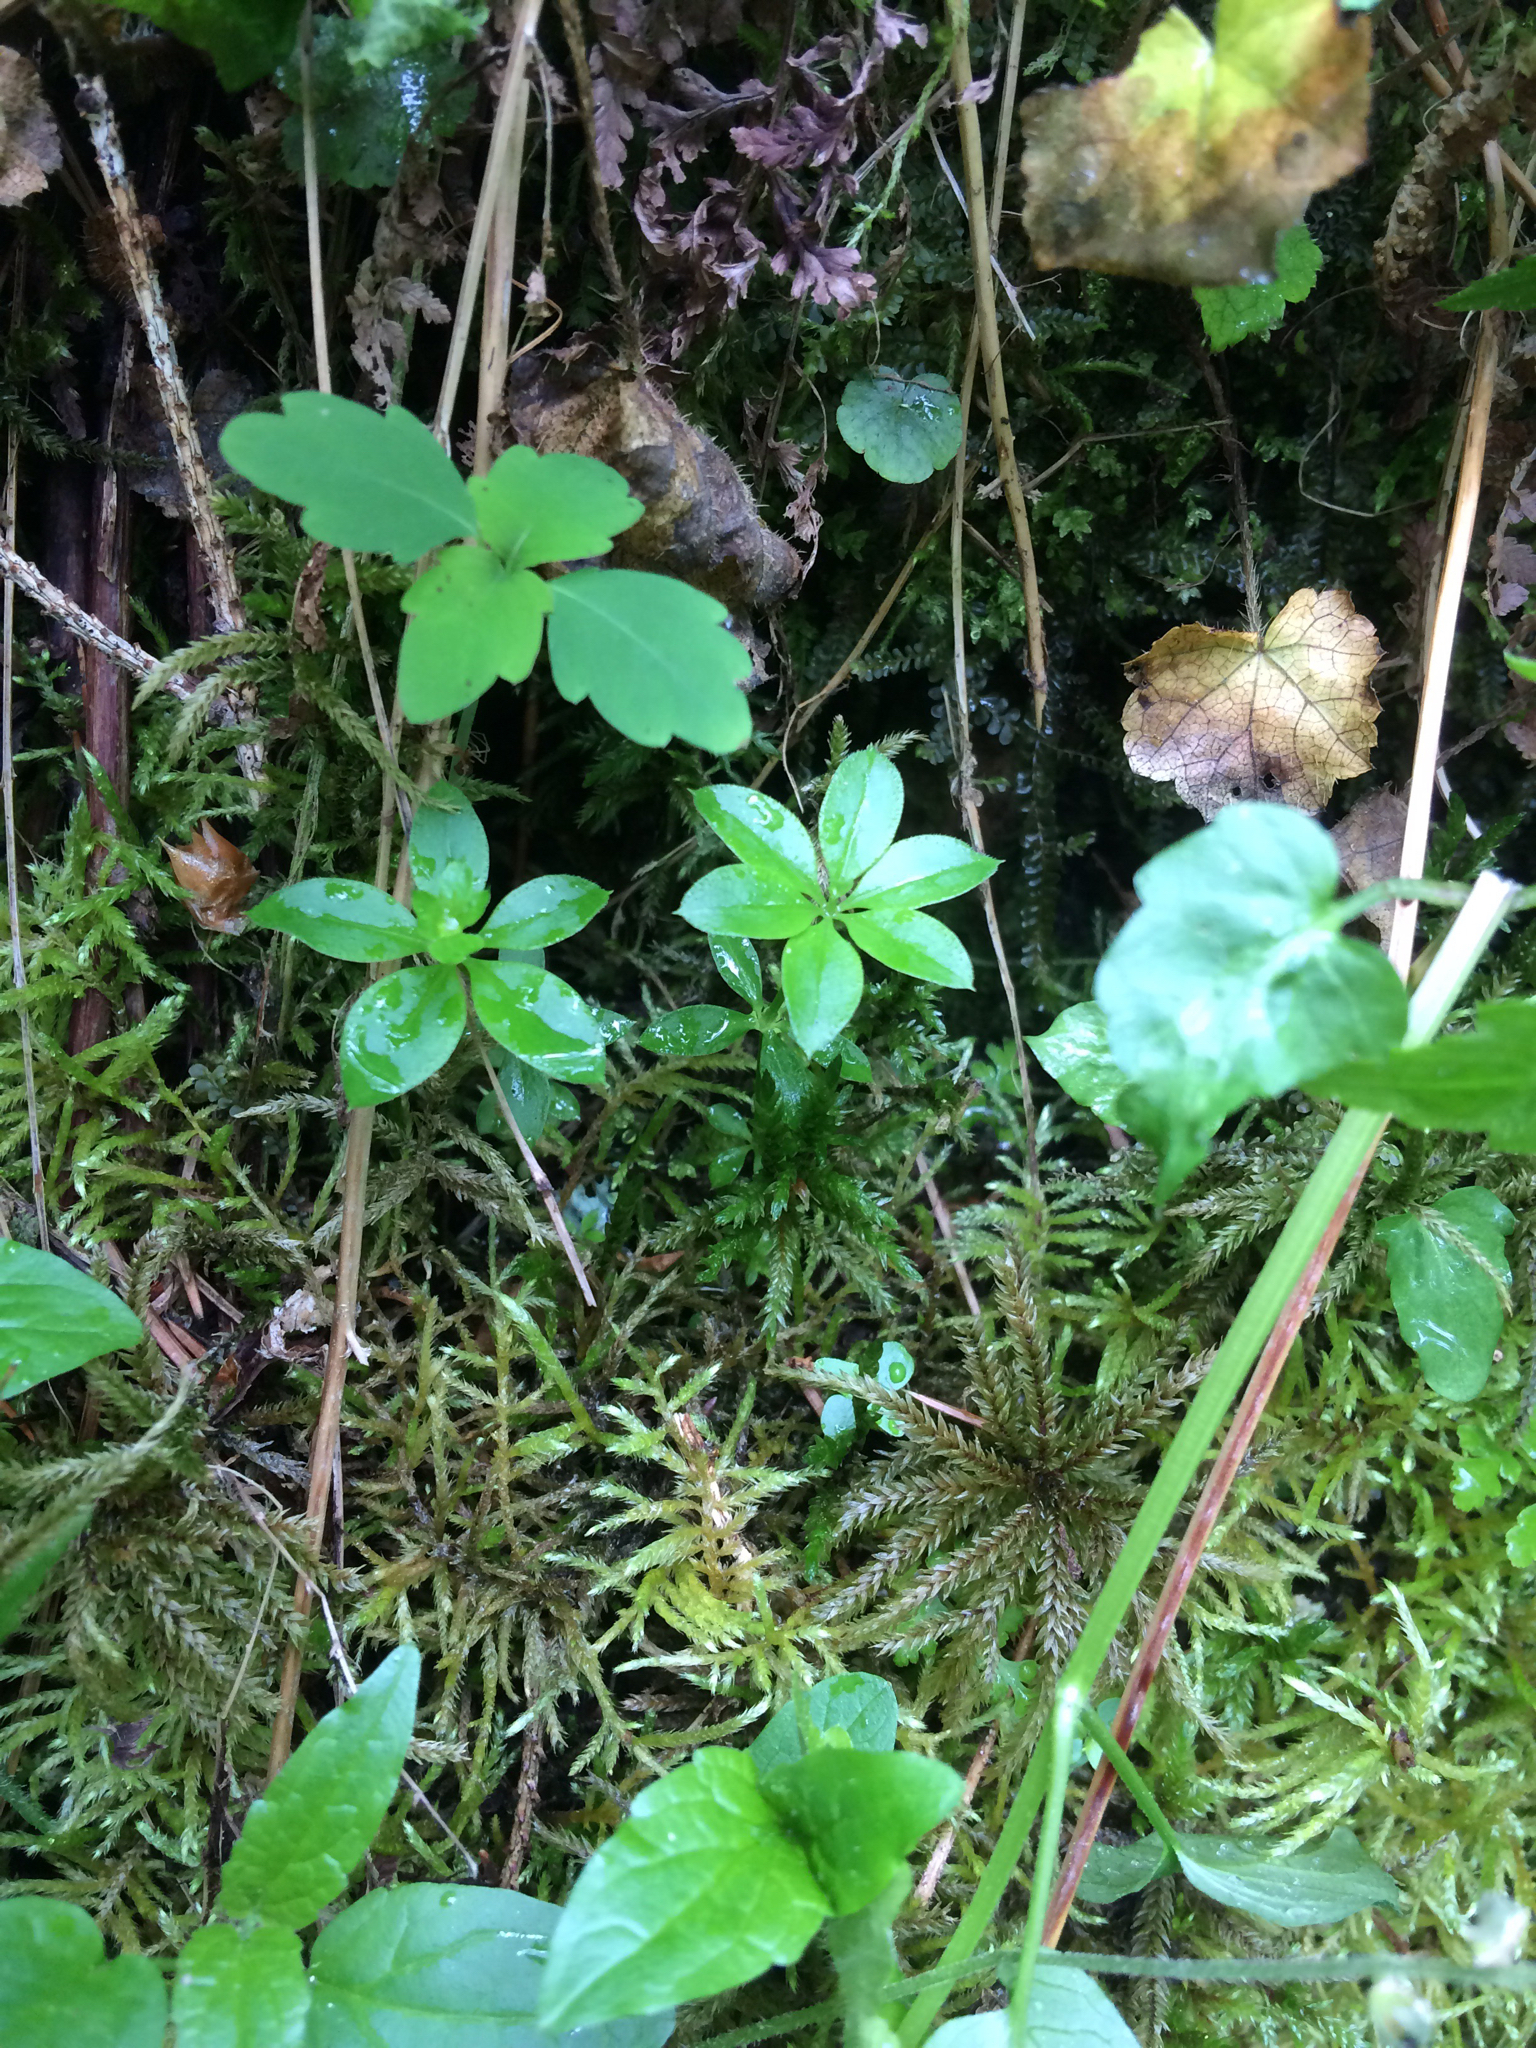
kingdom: Plantae
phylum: Tracheophyta
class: Magnoliopsida
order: Gentianales
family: Rubiaceae
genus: Galium
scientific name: Galium triflorum
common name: Fragrant bedstraw
